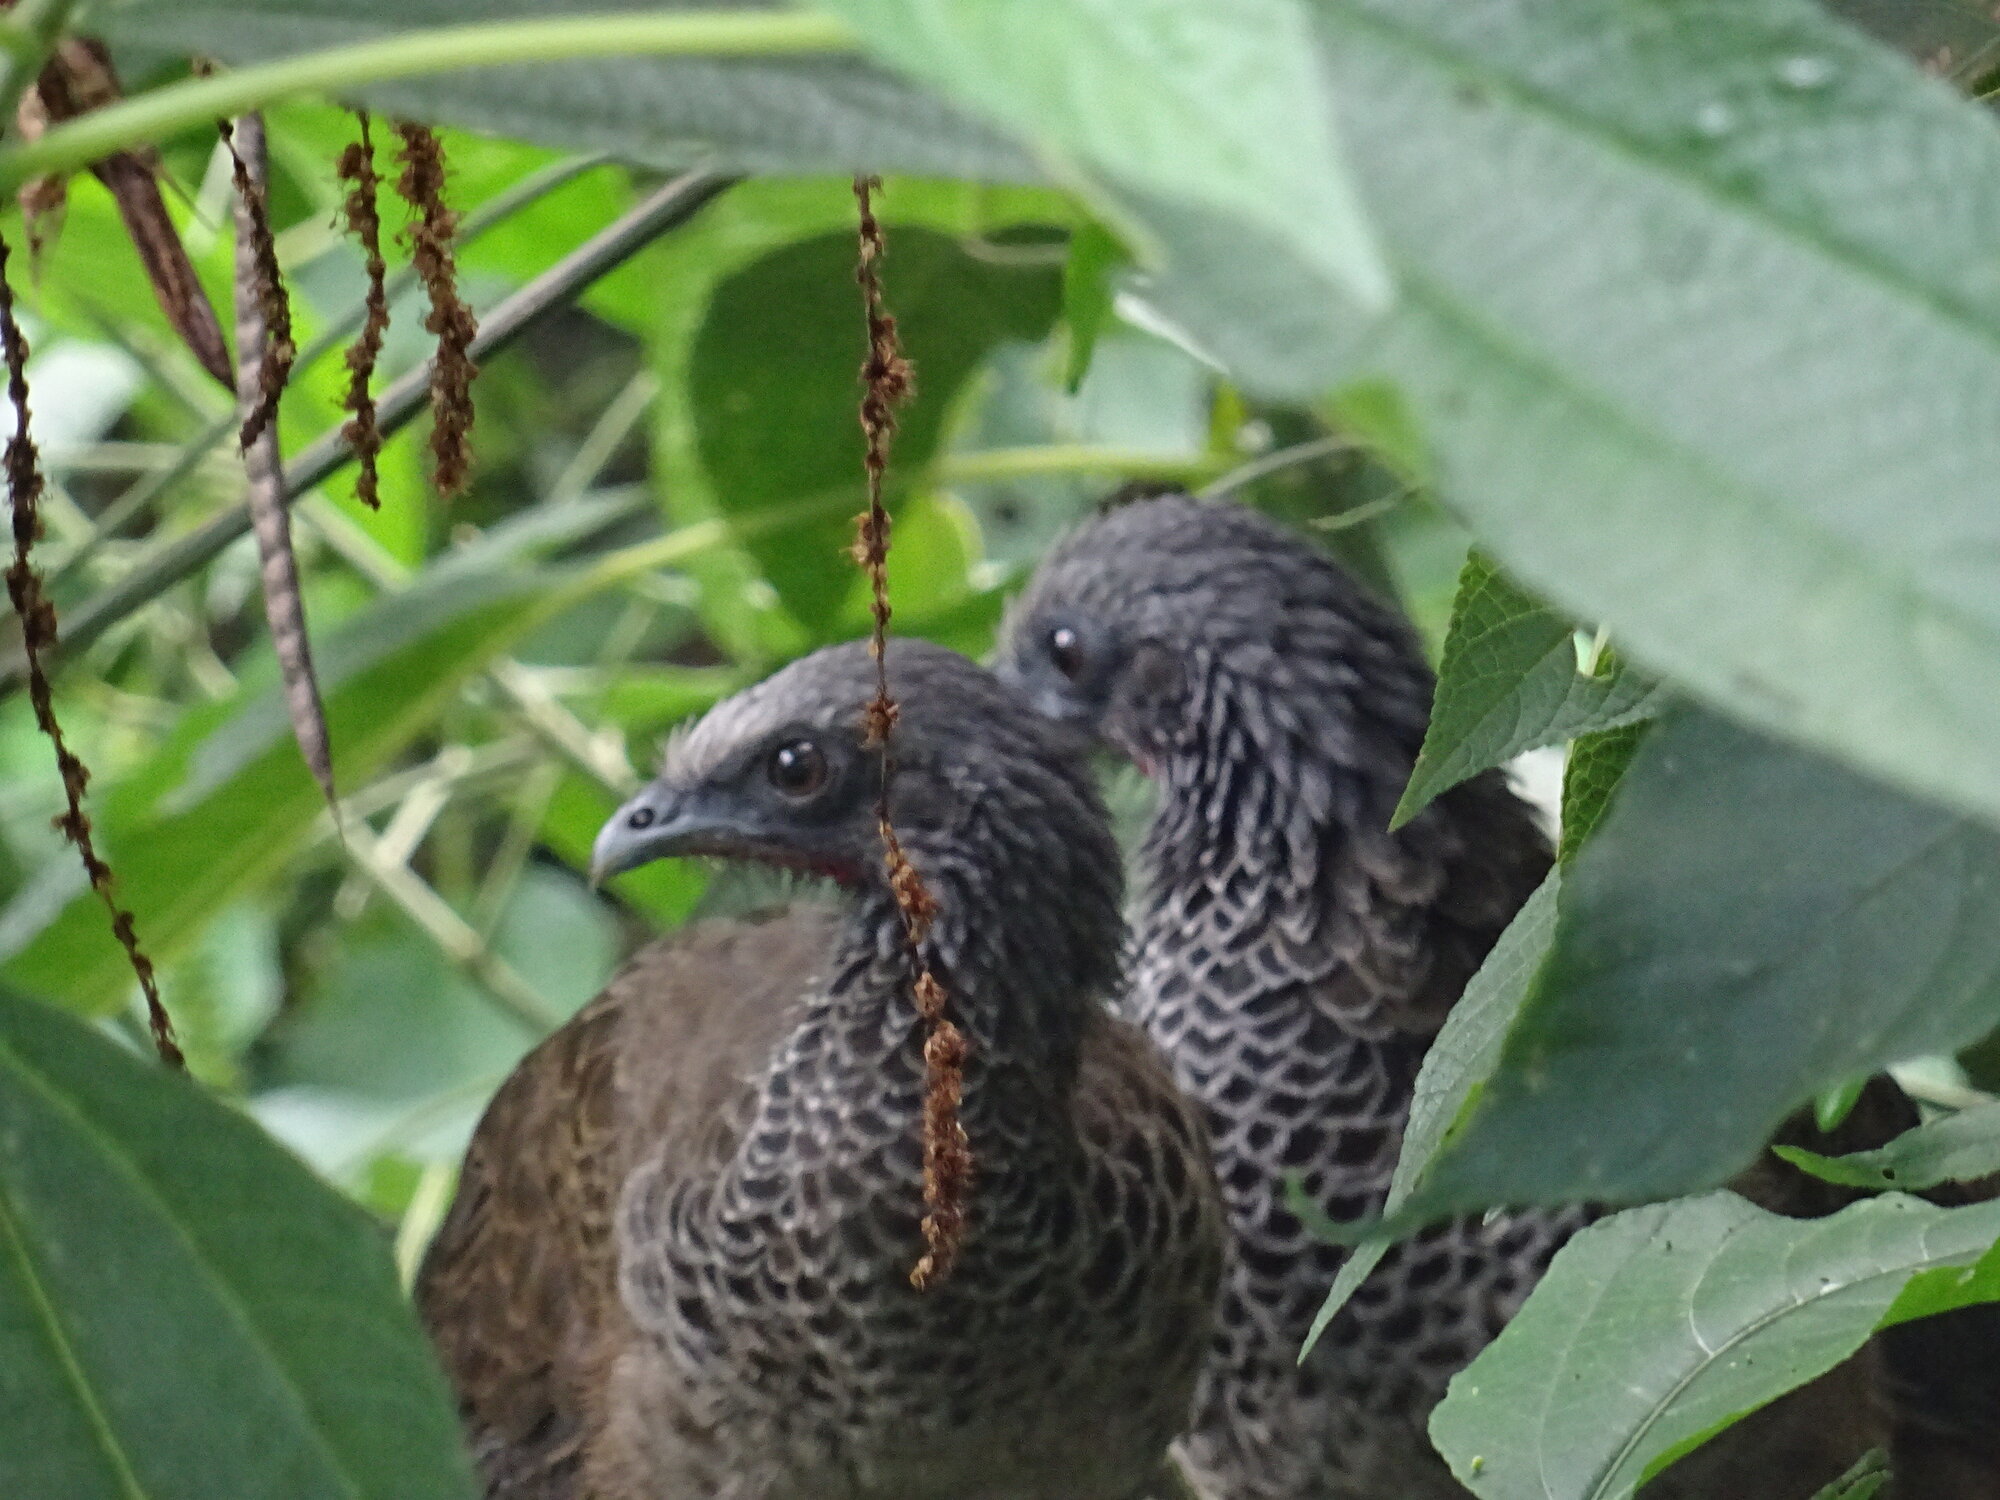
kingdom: Animalia
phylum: Chordata
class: Aves
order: Galliformes
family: Cracidae
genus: Ortalis
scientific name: Ortalis columbiana
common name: Colombian chachalaca
